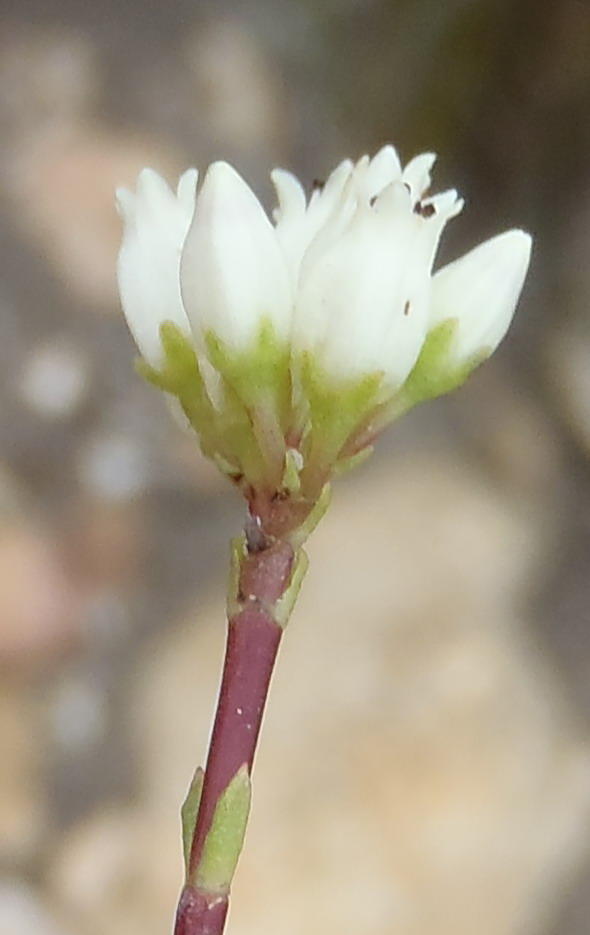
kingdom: Plantae
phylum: Tracheophyta
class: Magnoliopsida
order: Saxifragales
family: Crassulaceae
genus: Crassula
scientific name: Crassula biplanata
